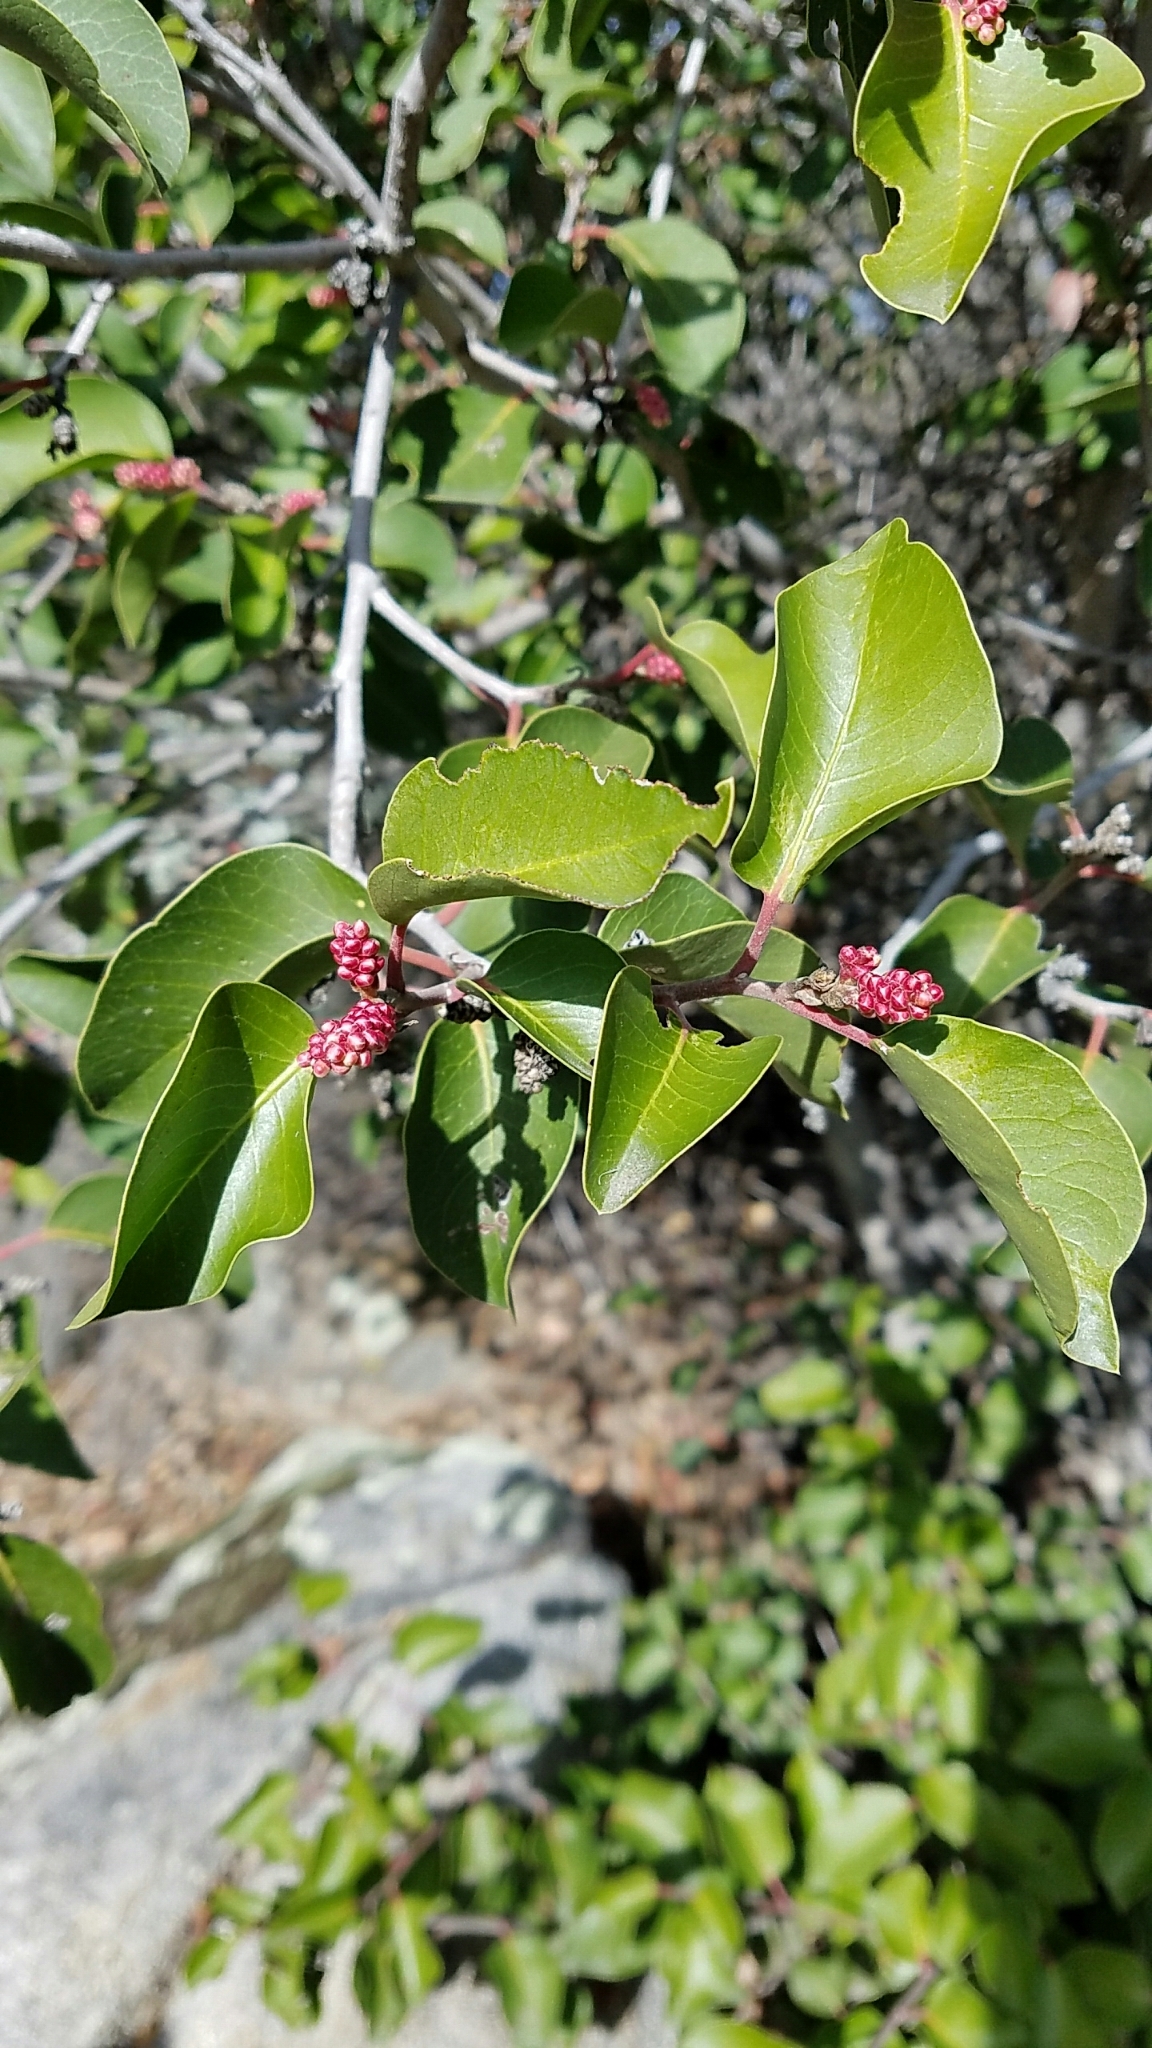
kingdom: Plantae
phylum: Tracheophyta
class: Magnoliopsida
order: Sapindales
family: Anacardiaceae
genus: Rhus
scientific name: Rhus ovata
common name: Sugar sumac
